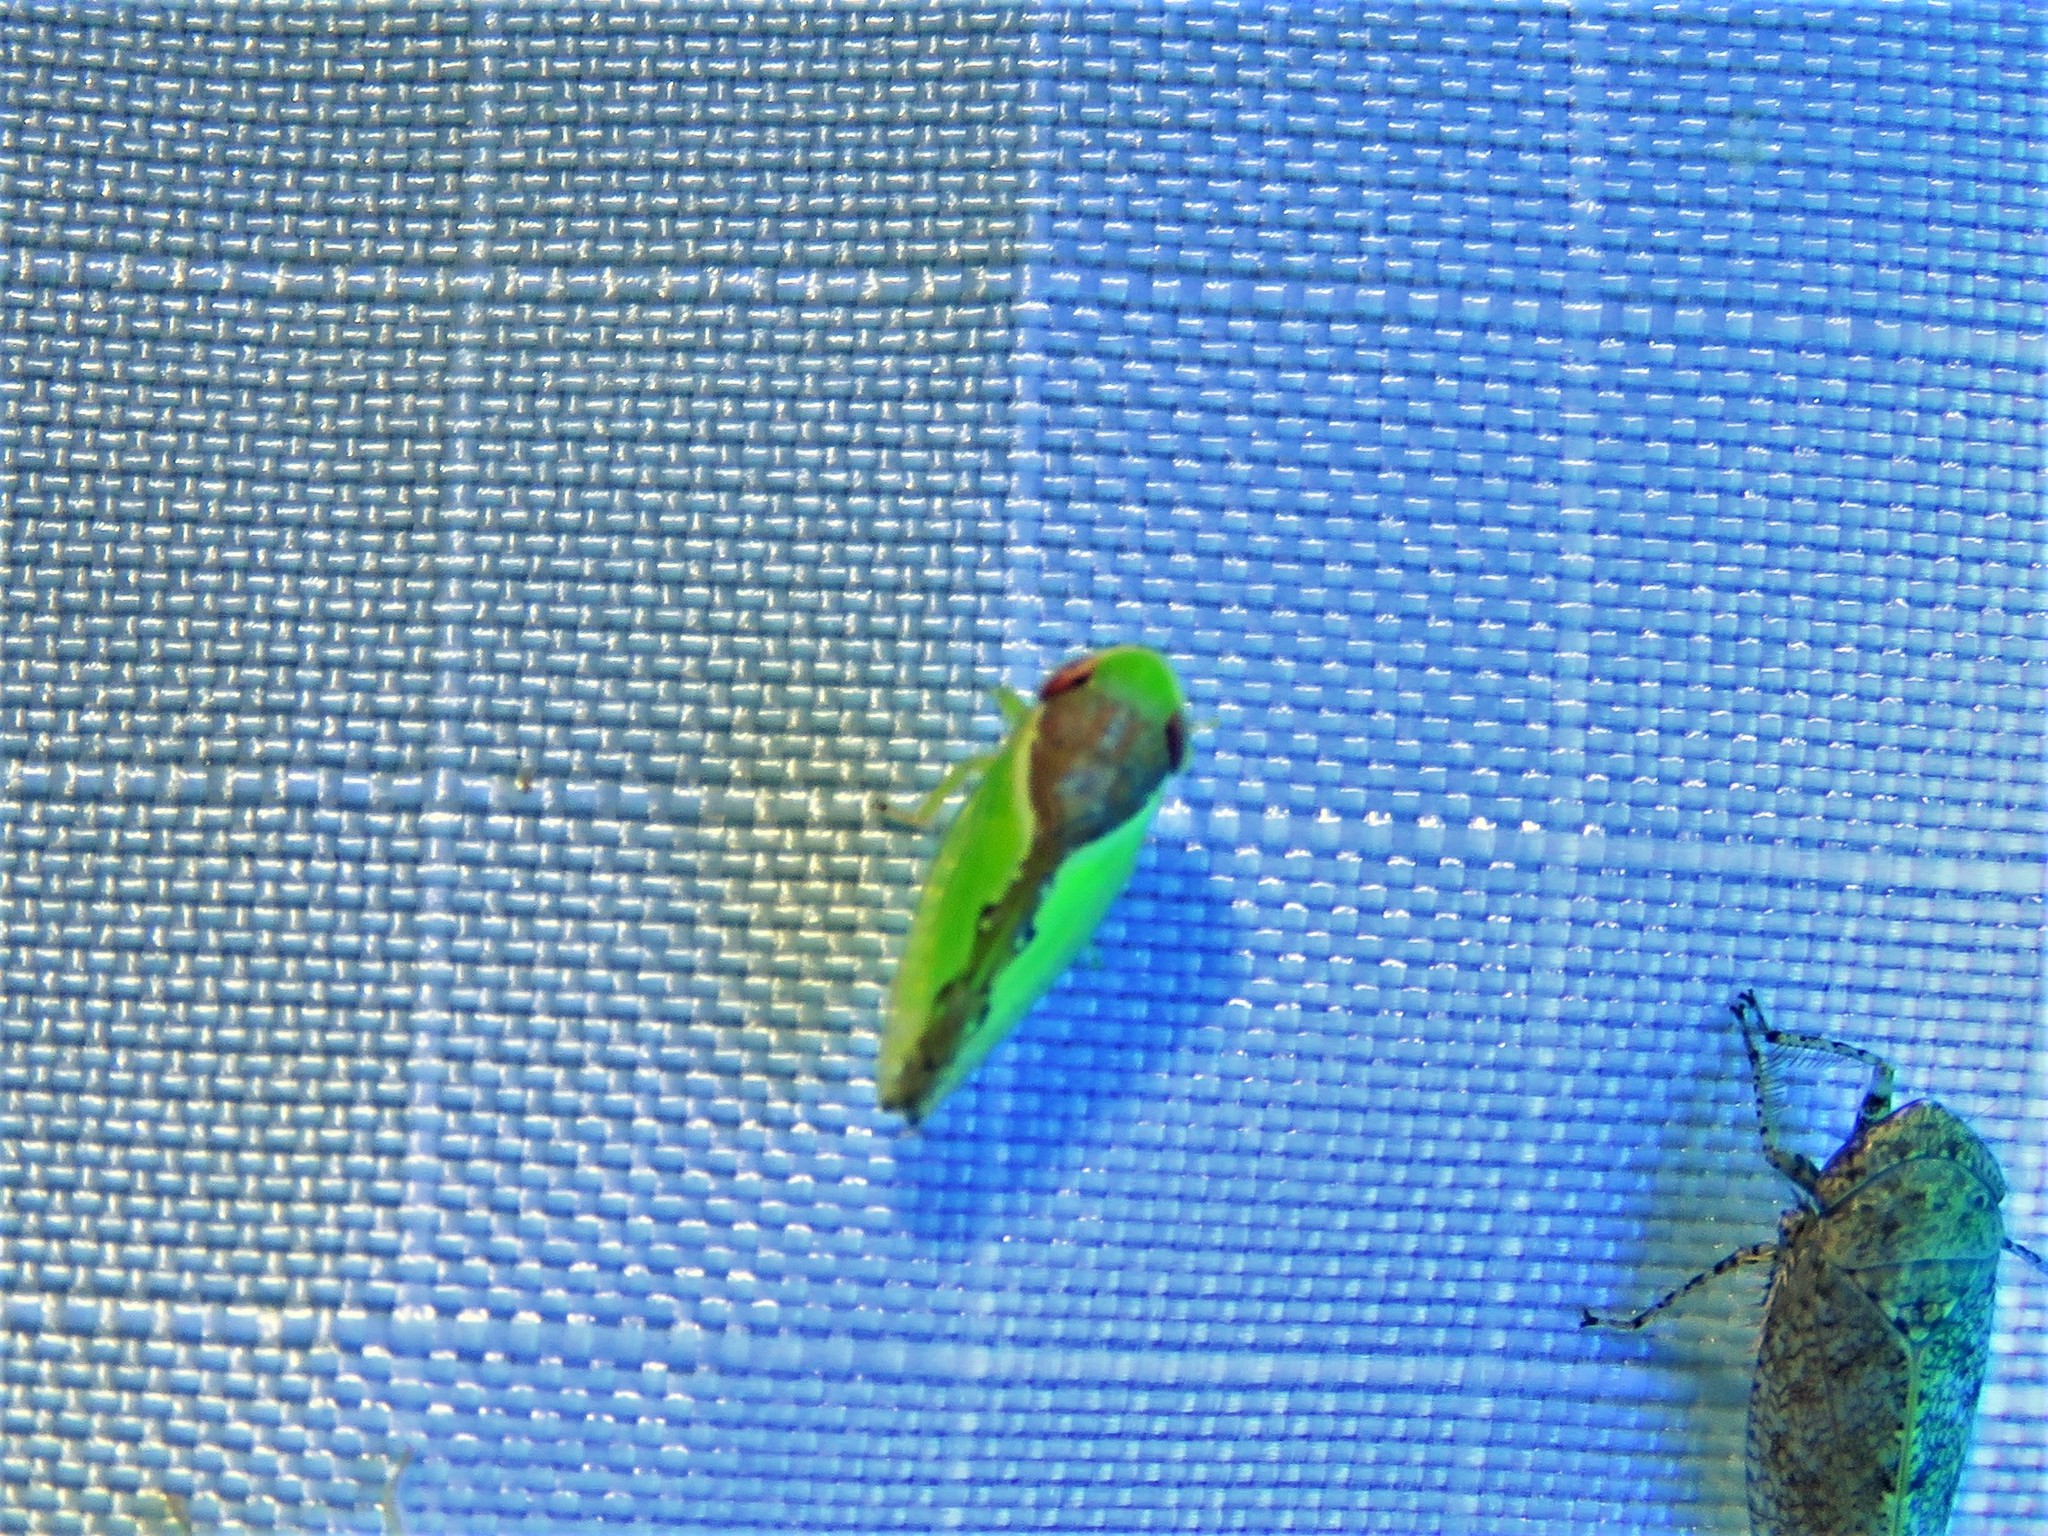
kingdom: Animalia
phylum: Arthropoda
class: Insecta
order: Hemiptera
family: Cicadellidae
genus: Omansobara ing
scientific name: Omansobara ing Omansobara palliolata
